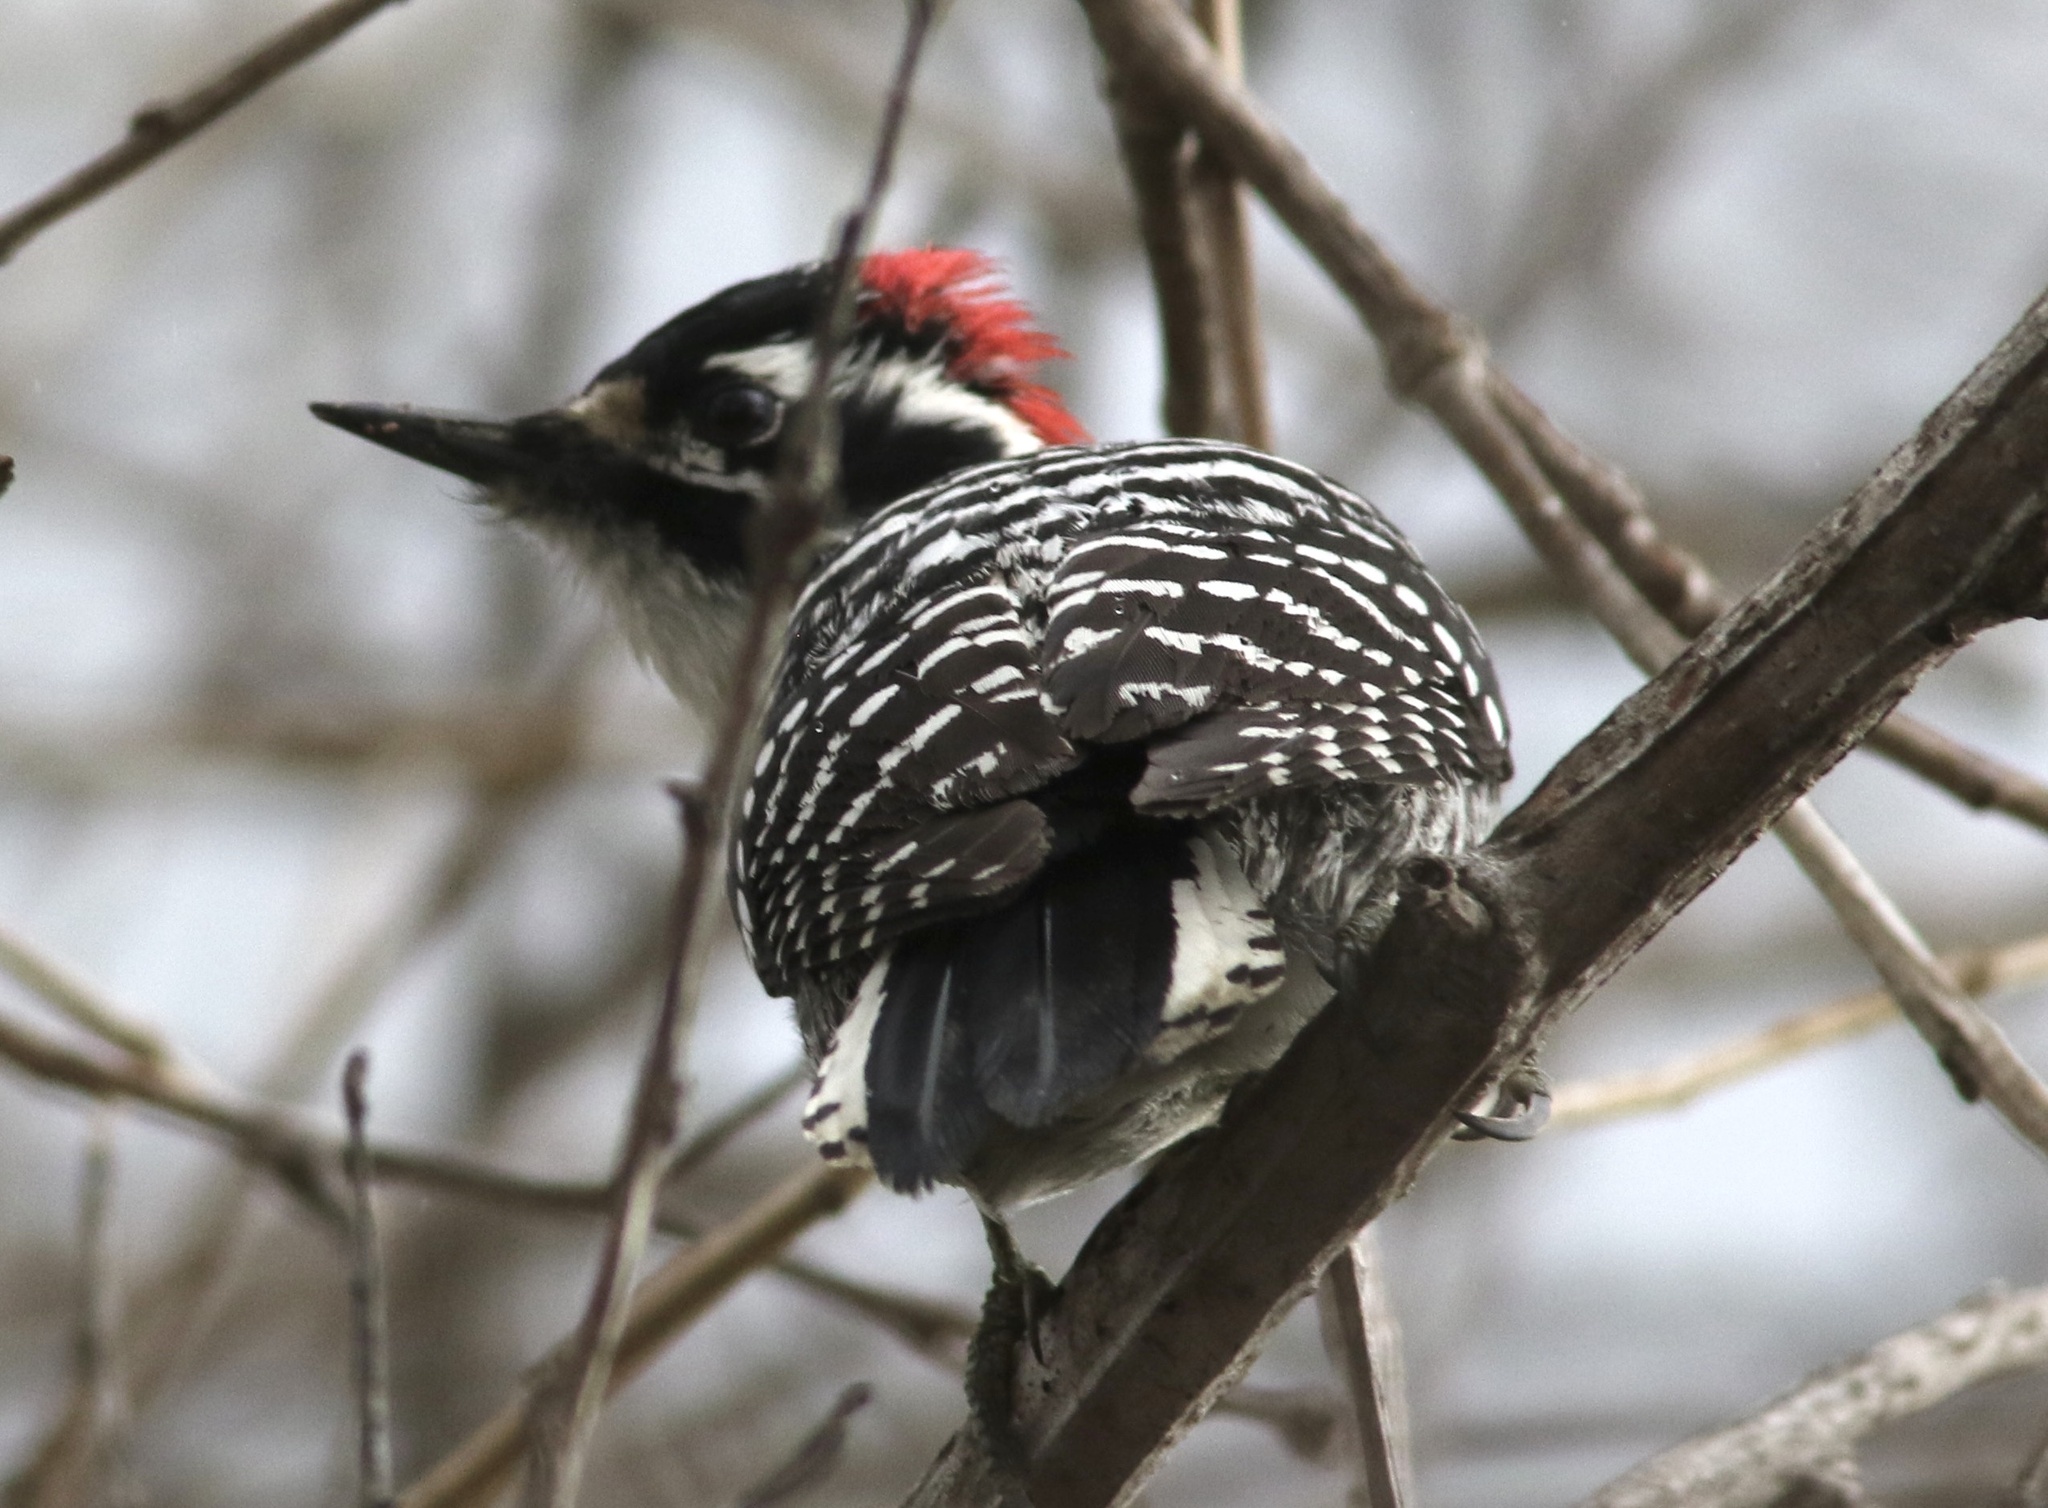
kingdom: Animalia
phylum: Chordata
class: Aves
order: Piciformes
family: Picidae
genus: Dryobates
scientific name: Dryobates nuttallii
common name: Nuttall's woodpecker
